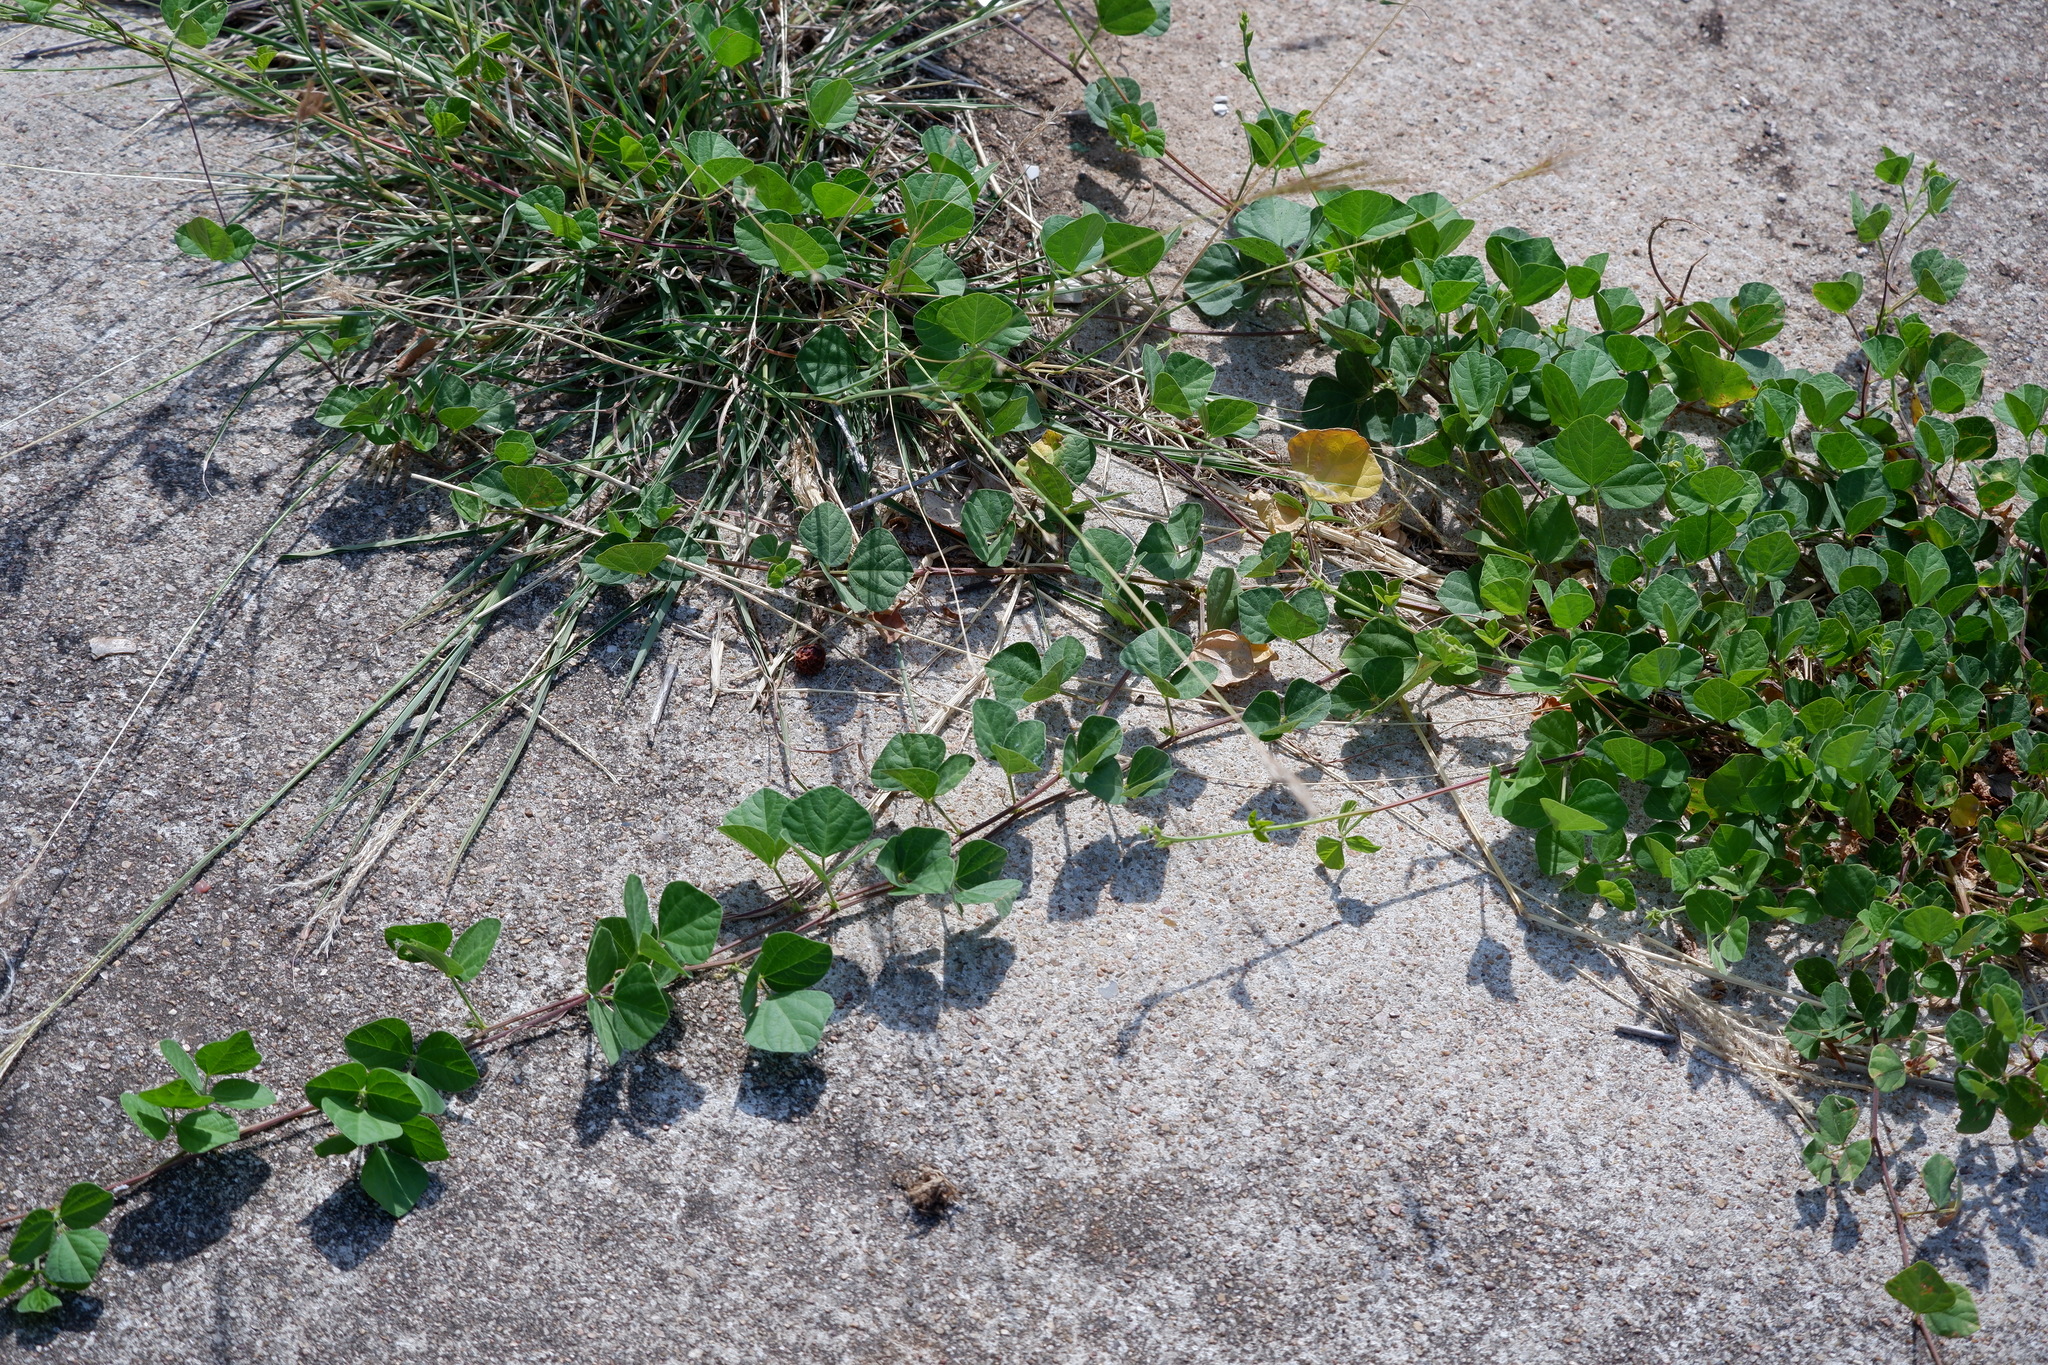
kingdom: Plantae
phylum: Tracheophyta
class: Magnoliopsida
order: Fabales
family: Fabaceae
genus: Strophostyles
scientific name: Strophostyles helvola
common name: Trailing wild bean
